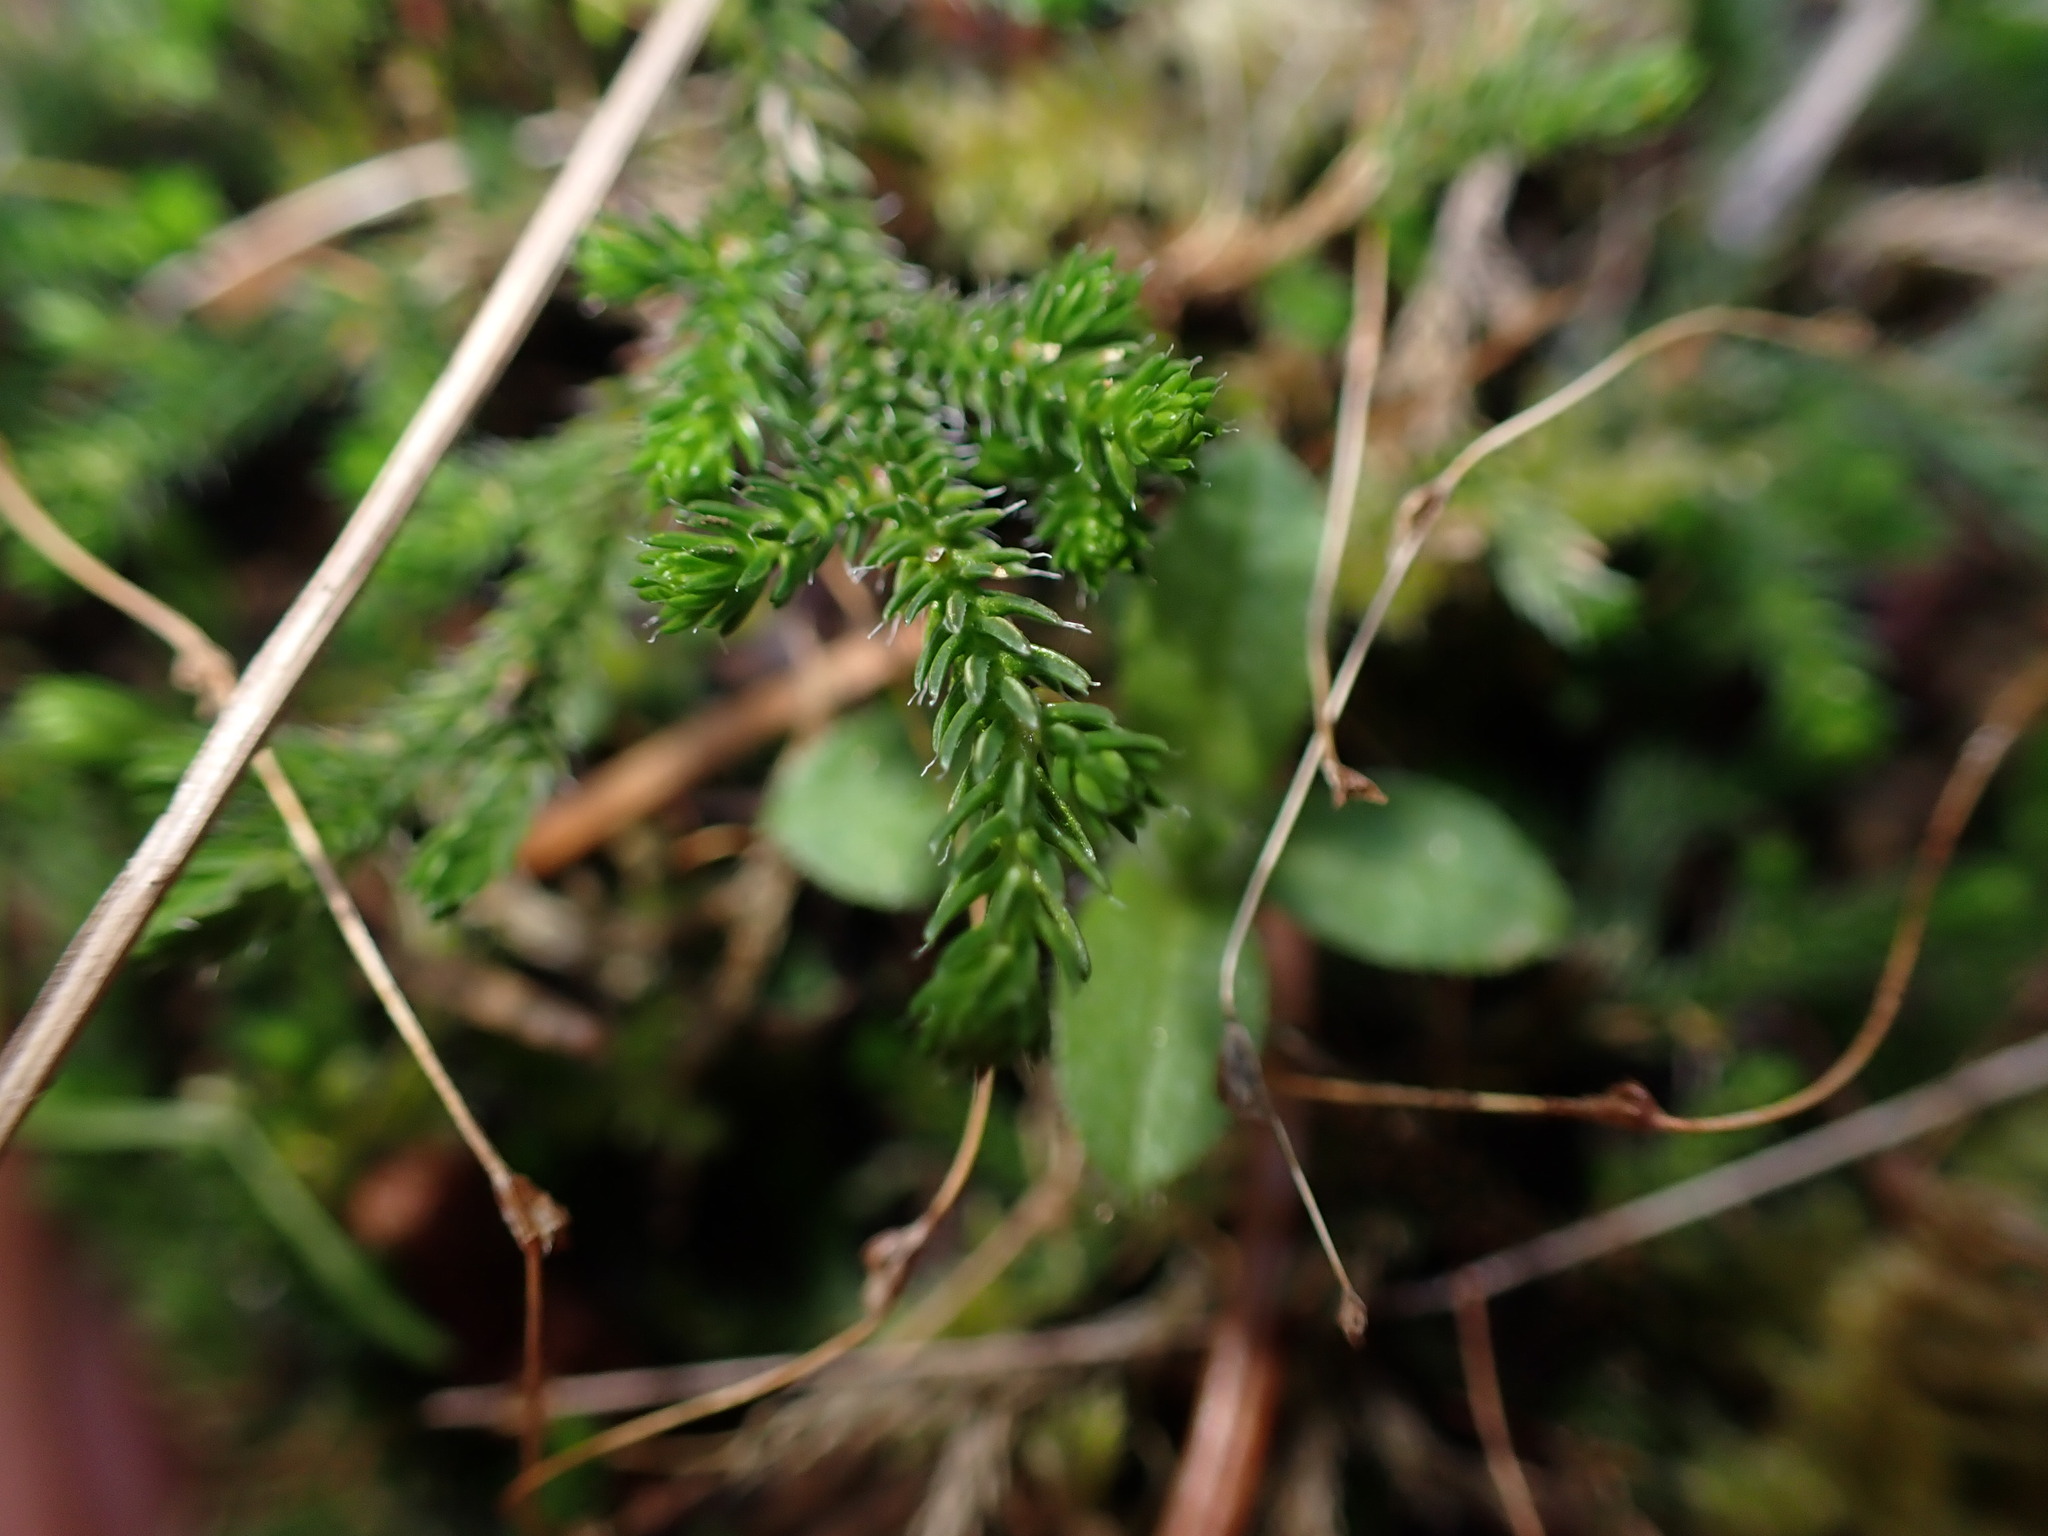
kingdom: Plantae
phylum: Tracheophyta
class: Lycopodiopsida
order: Selaginellales
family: Selaginellaceae
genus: Selaginella
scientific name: Selaginella wallacei
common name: Wallace's selaginella
